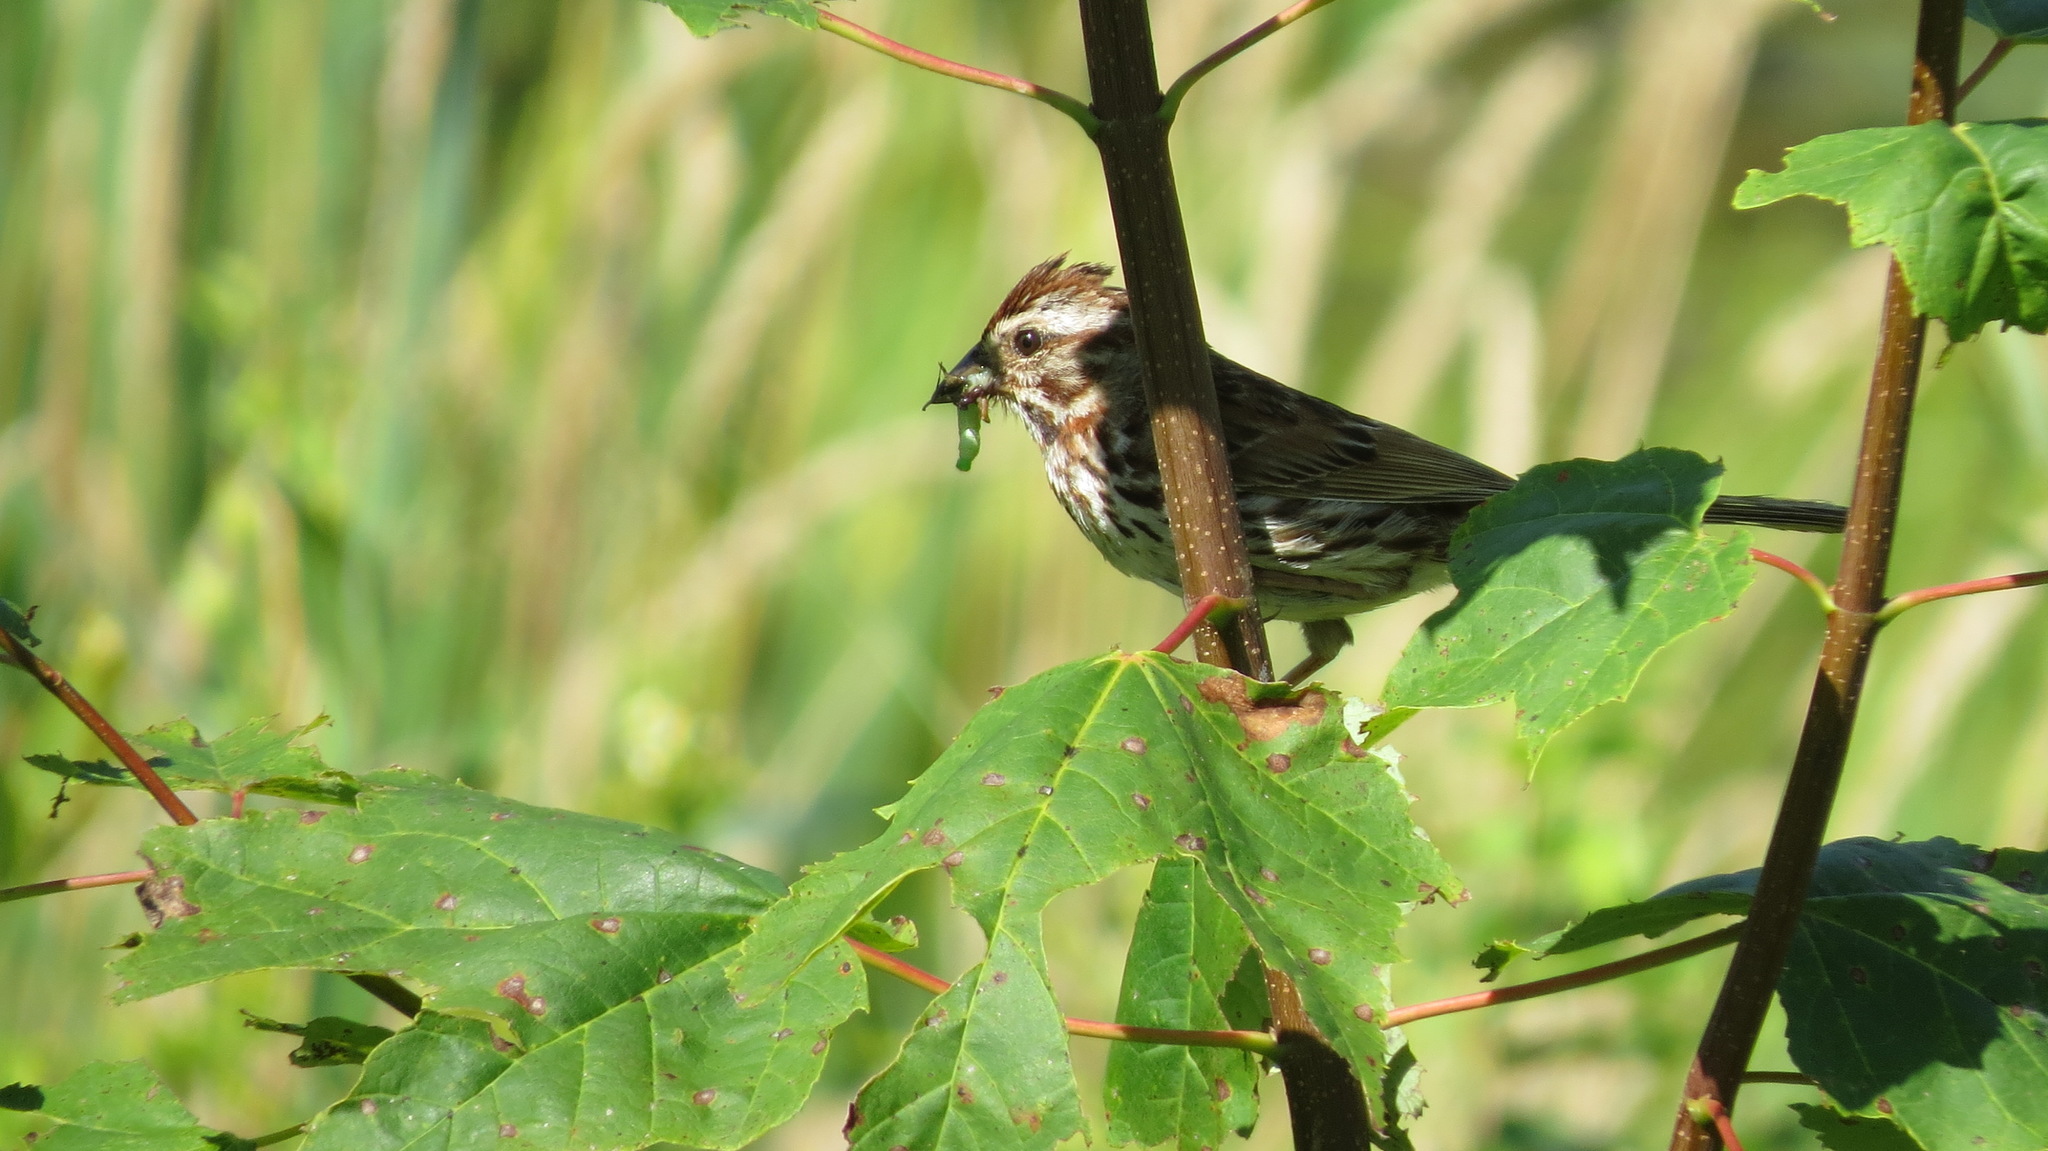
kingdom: Animalia
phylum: Chordata
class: Aves
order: Passeriformes
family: Passerellidae
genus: Melospiza
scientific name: Melospiza melodia
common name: Song sparrow
